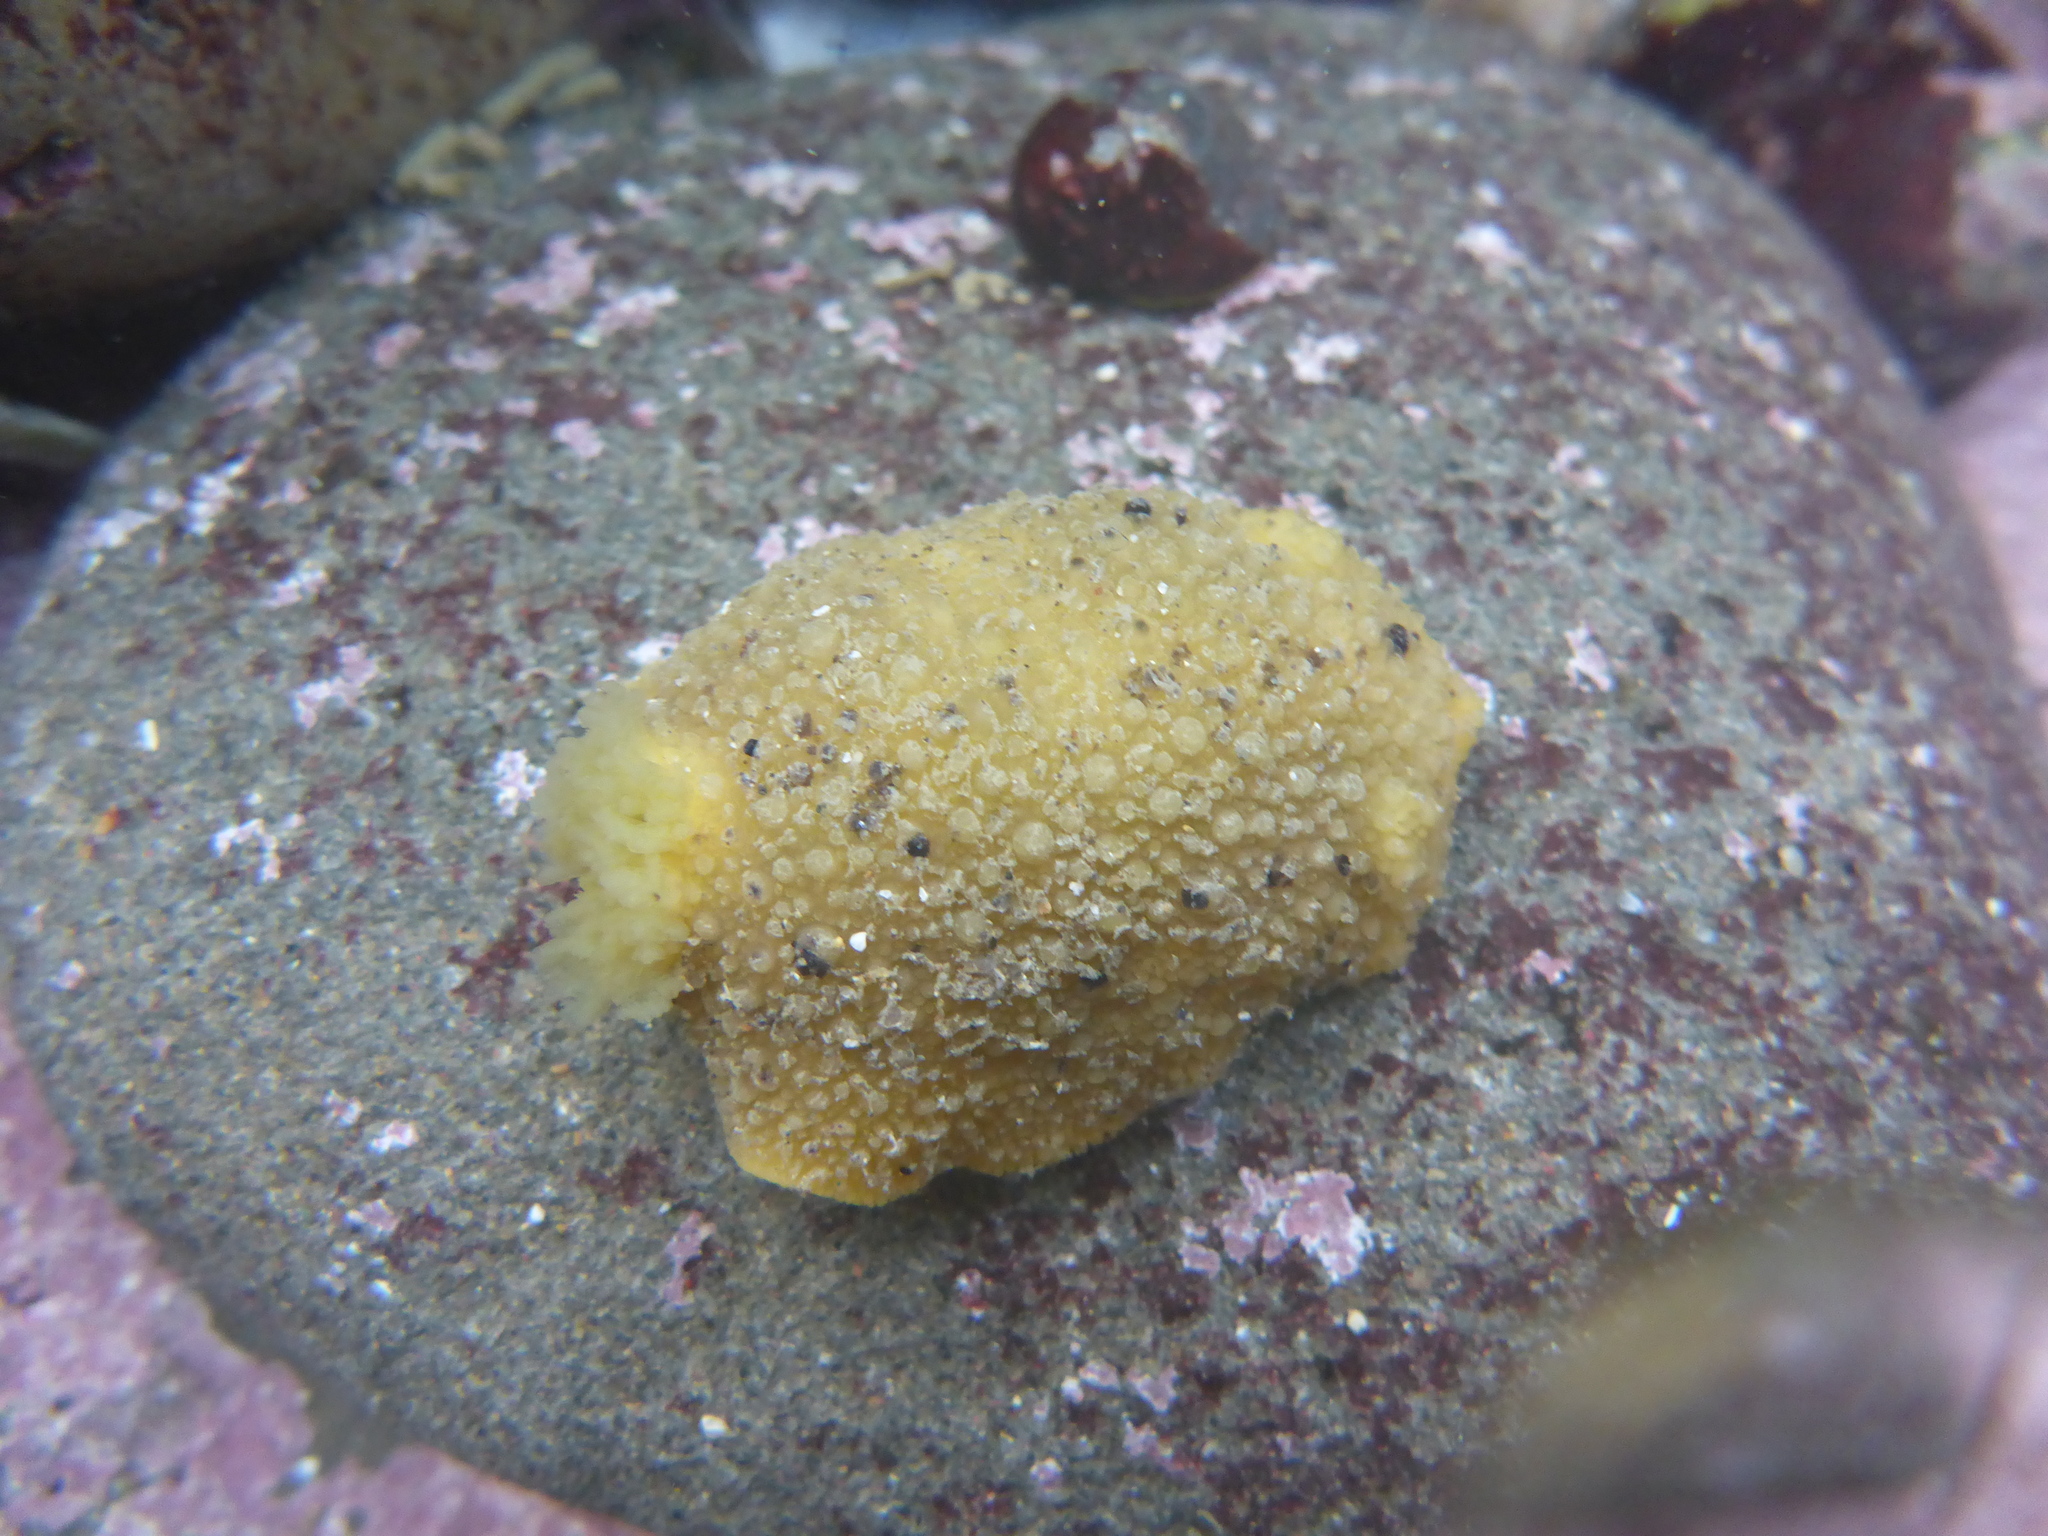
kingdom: Animalia
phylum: Mollusca
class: Gastropoda
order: Nudibranchia
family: Dorididae
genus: Doris
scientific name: Doris montereyensis
